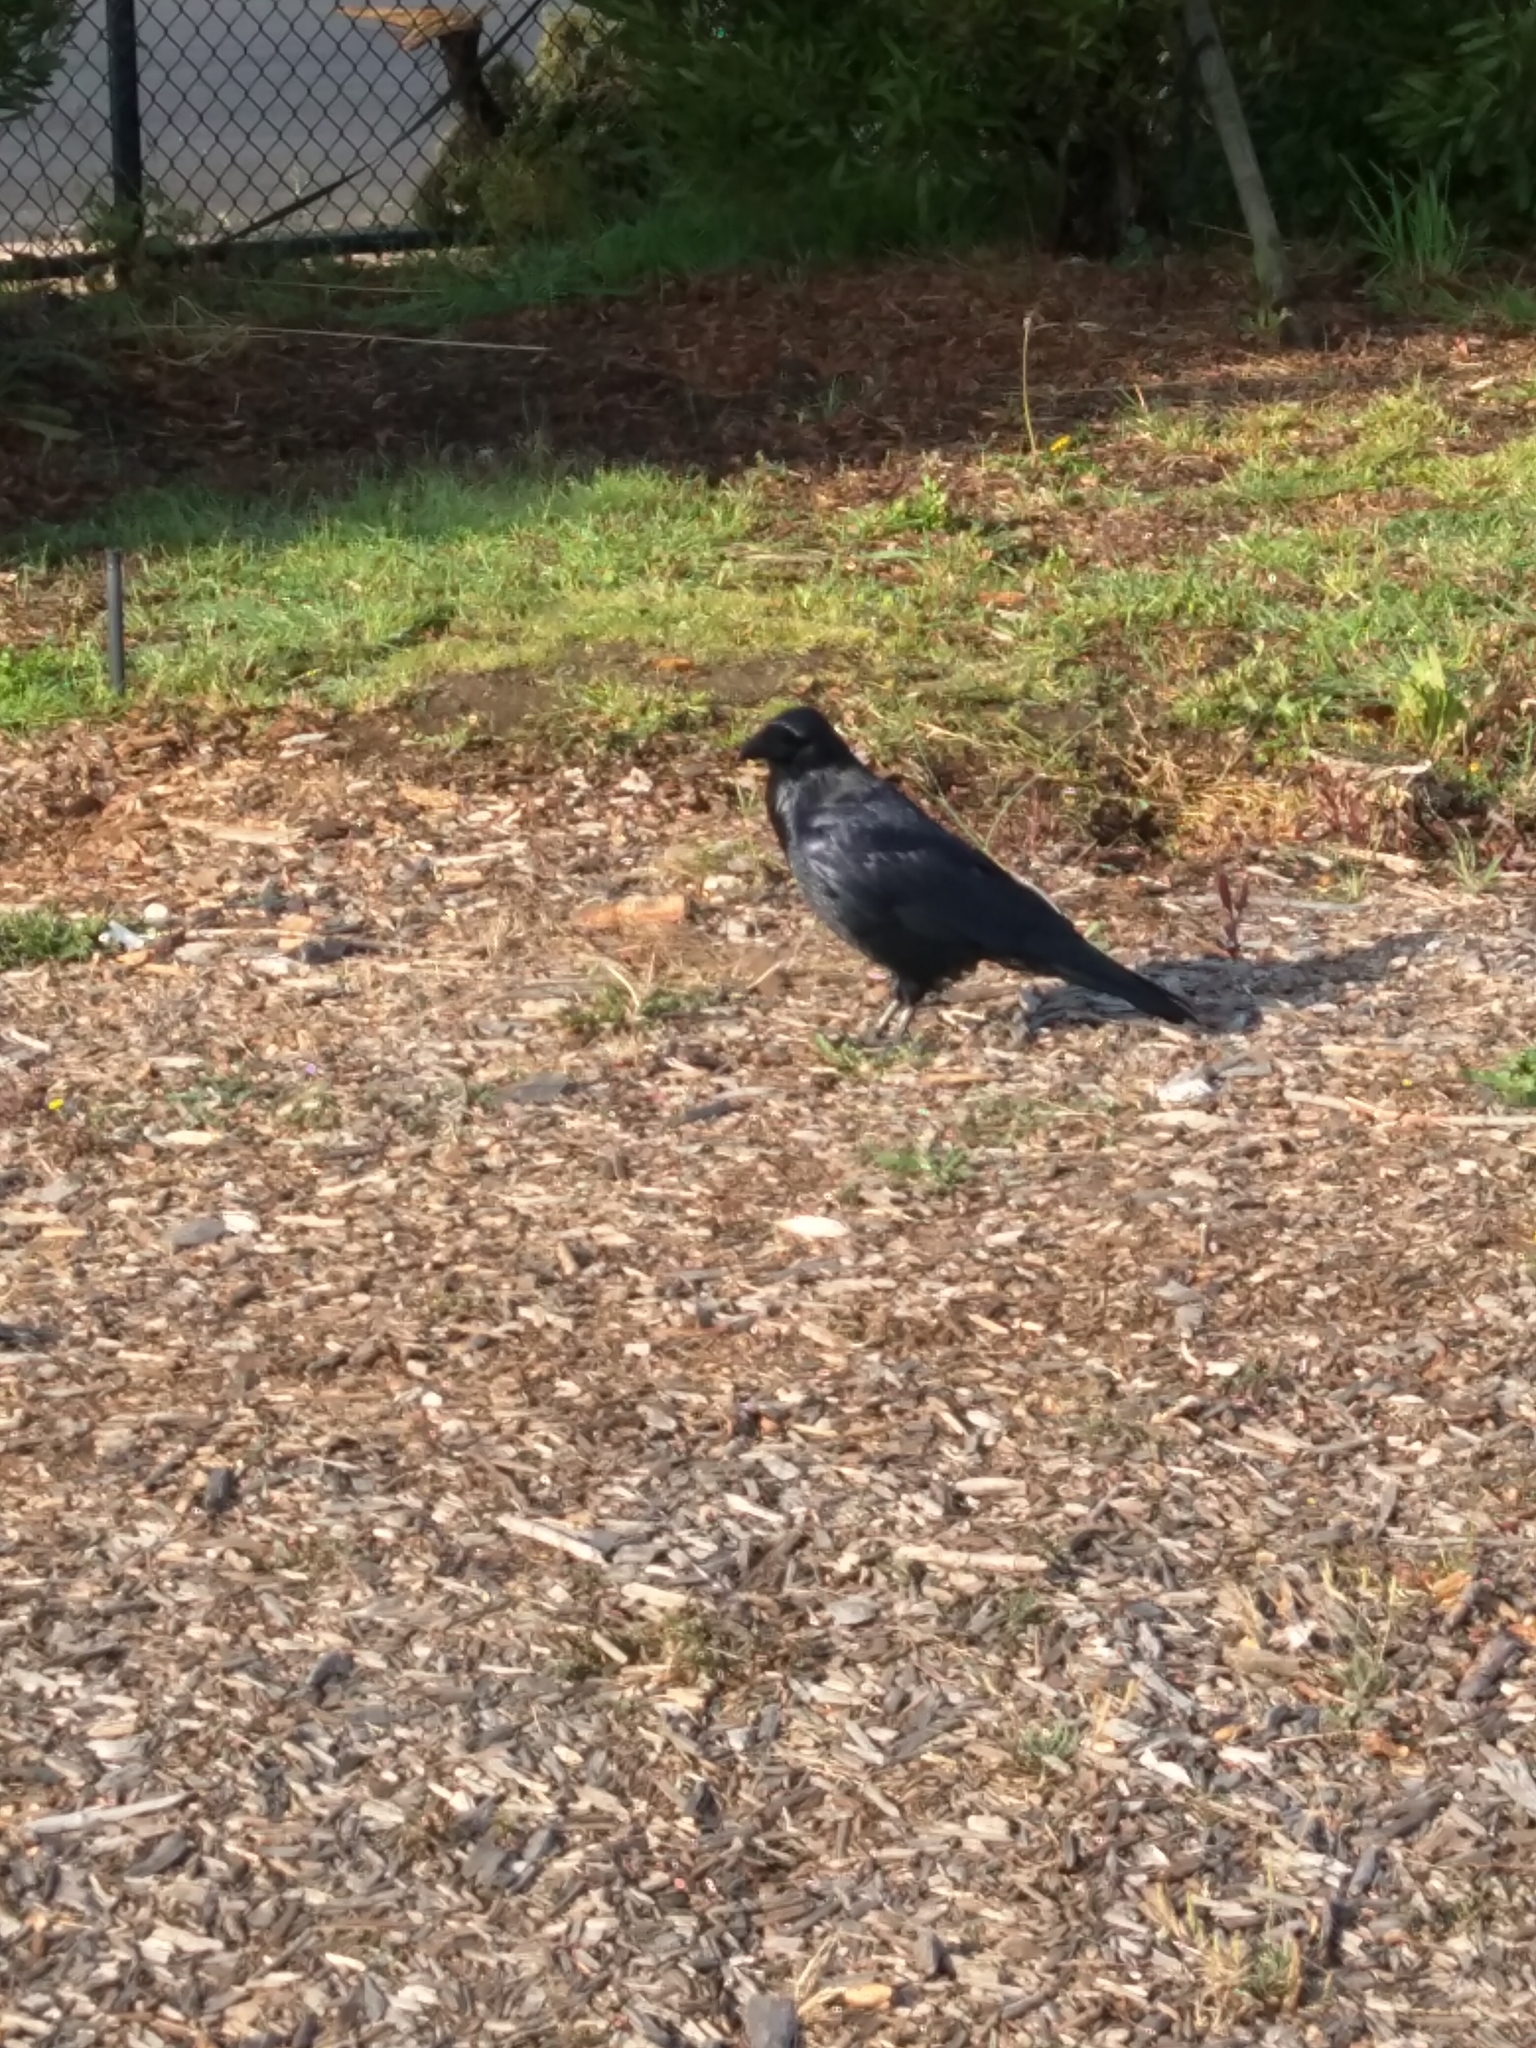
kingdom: Animalia
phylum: Chordata
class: Aves
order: Passeriformes
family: Corvidae
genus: Corvus
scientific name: Corvus corax
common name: Common raven
